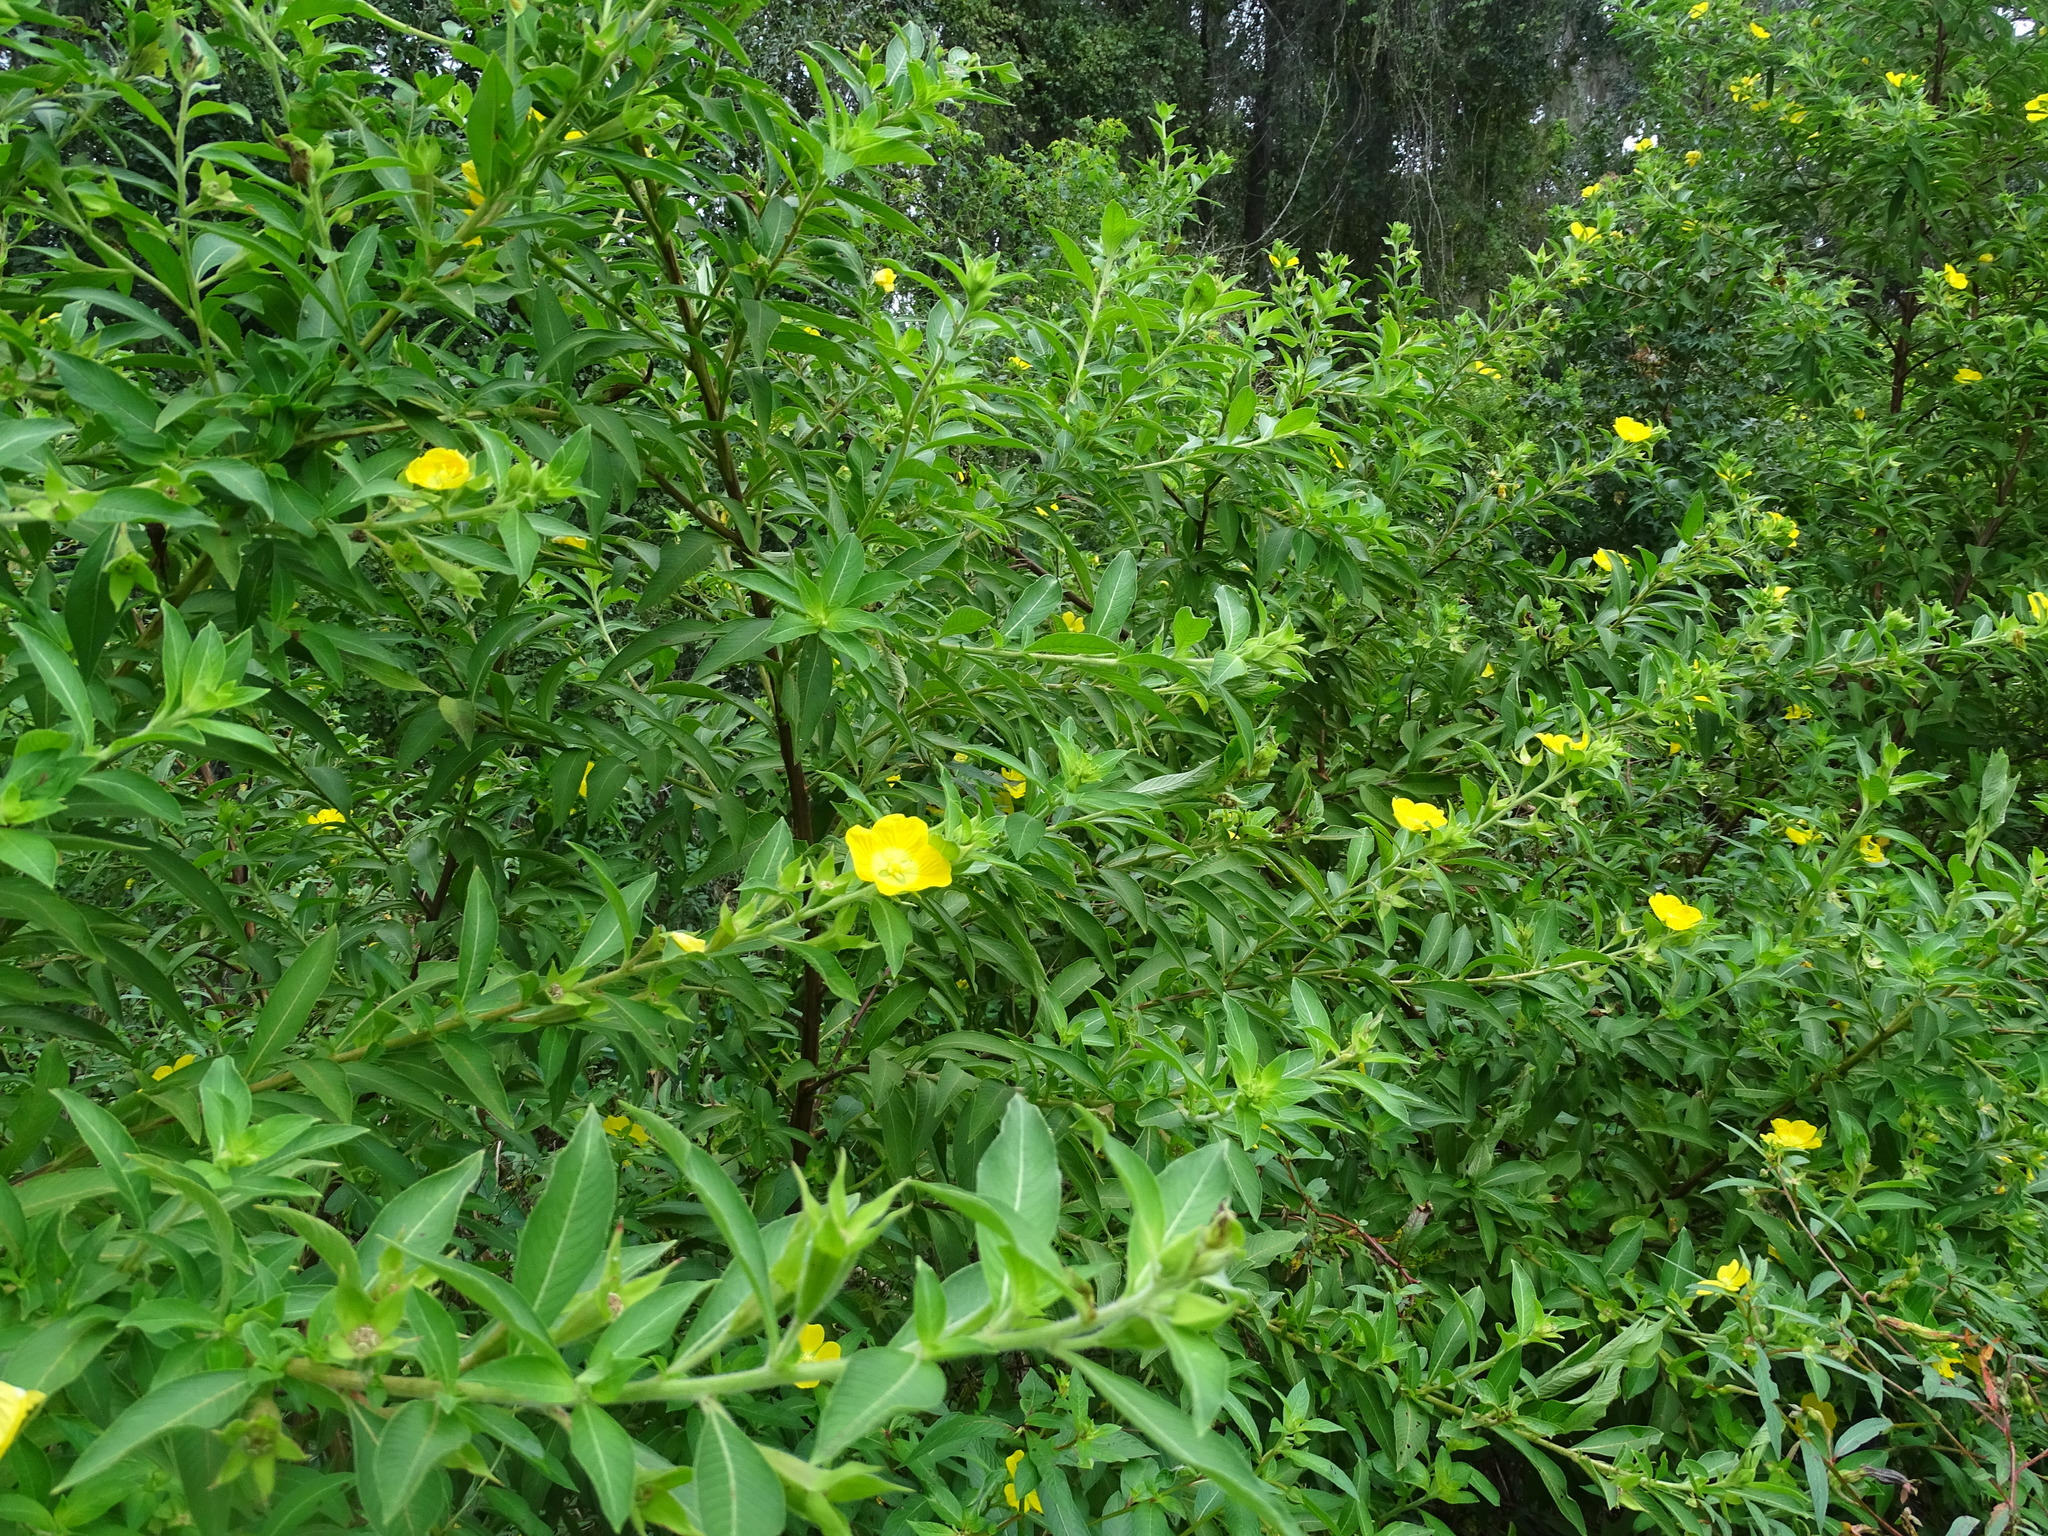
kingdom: Plantae
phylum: Tracheophyta
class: Magnoliopsida
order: Myrtales
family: Onagraceae
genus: Ludwigia
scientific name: Ludwigia peruviana
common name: Peruvian primrose-willow
